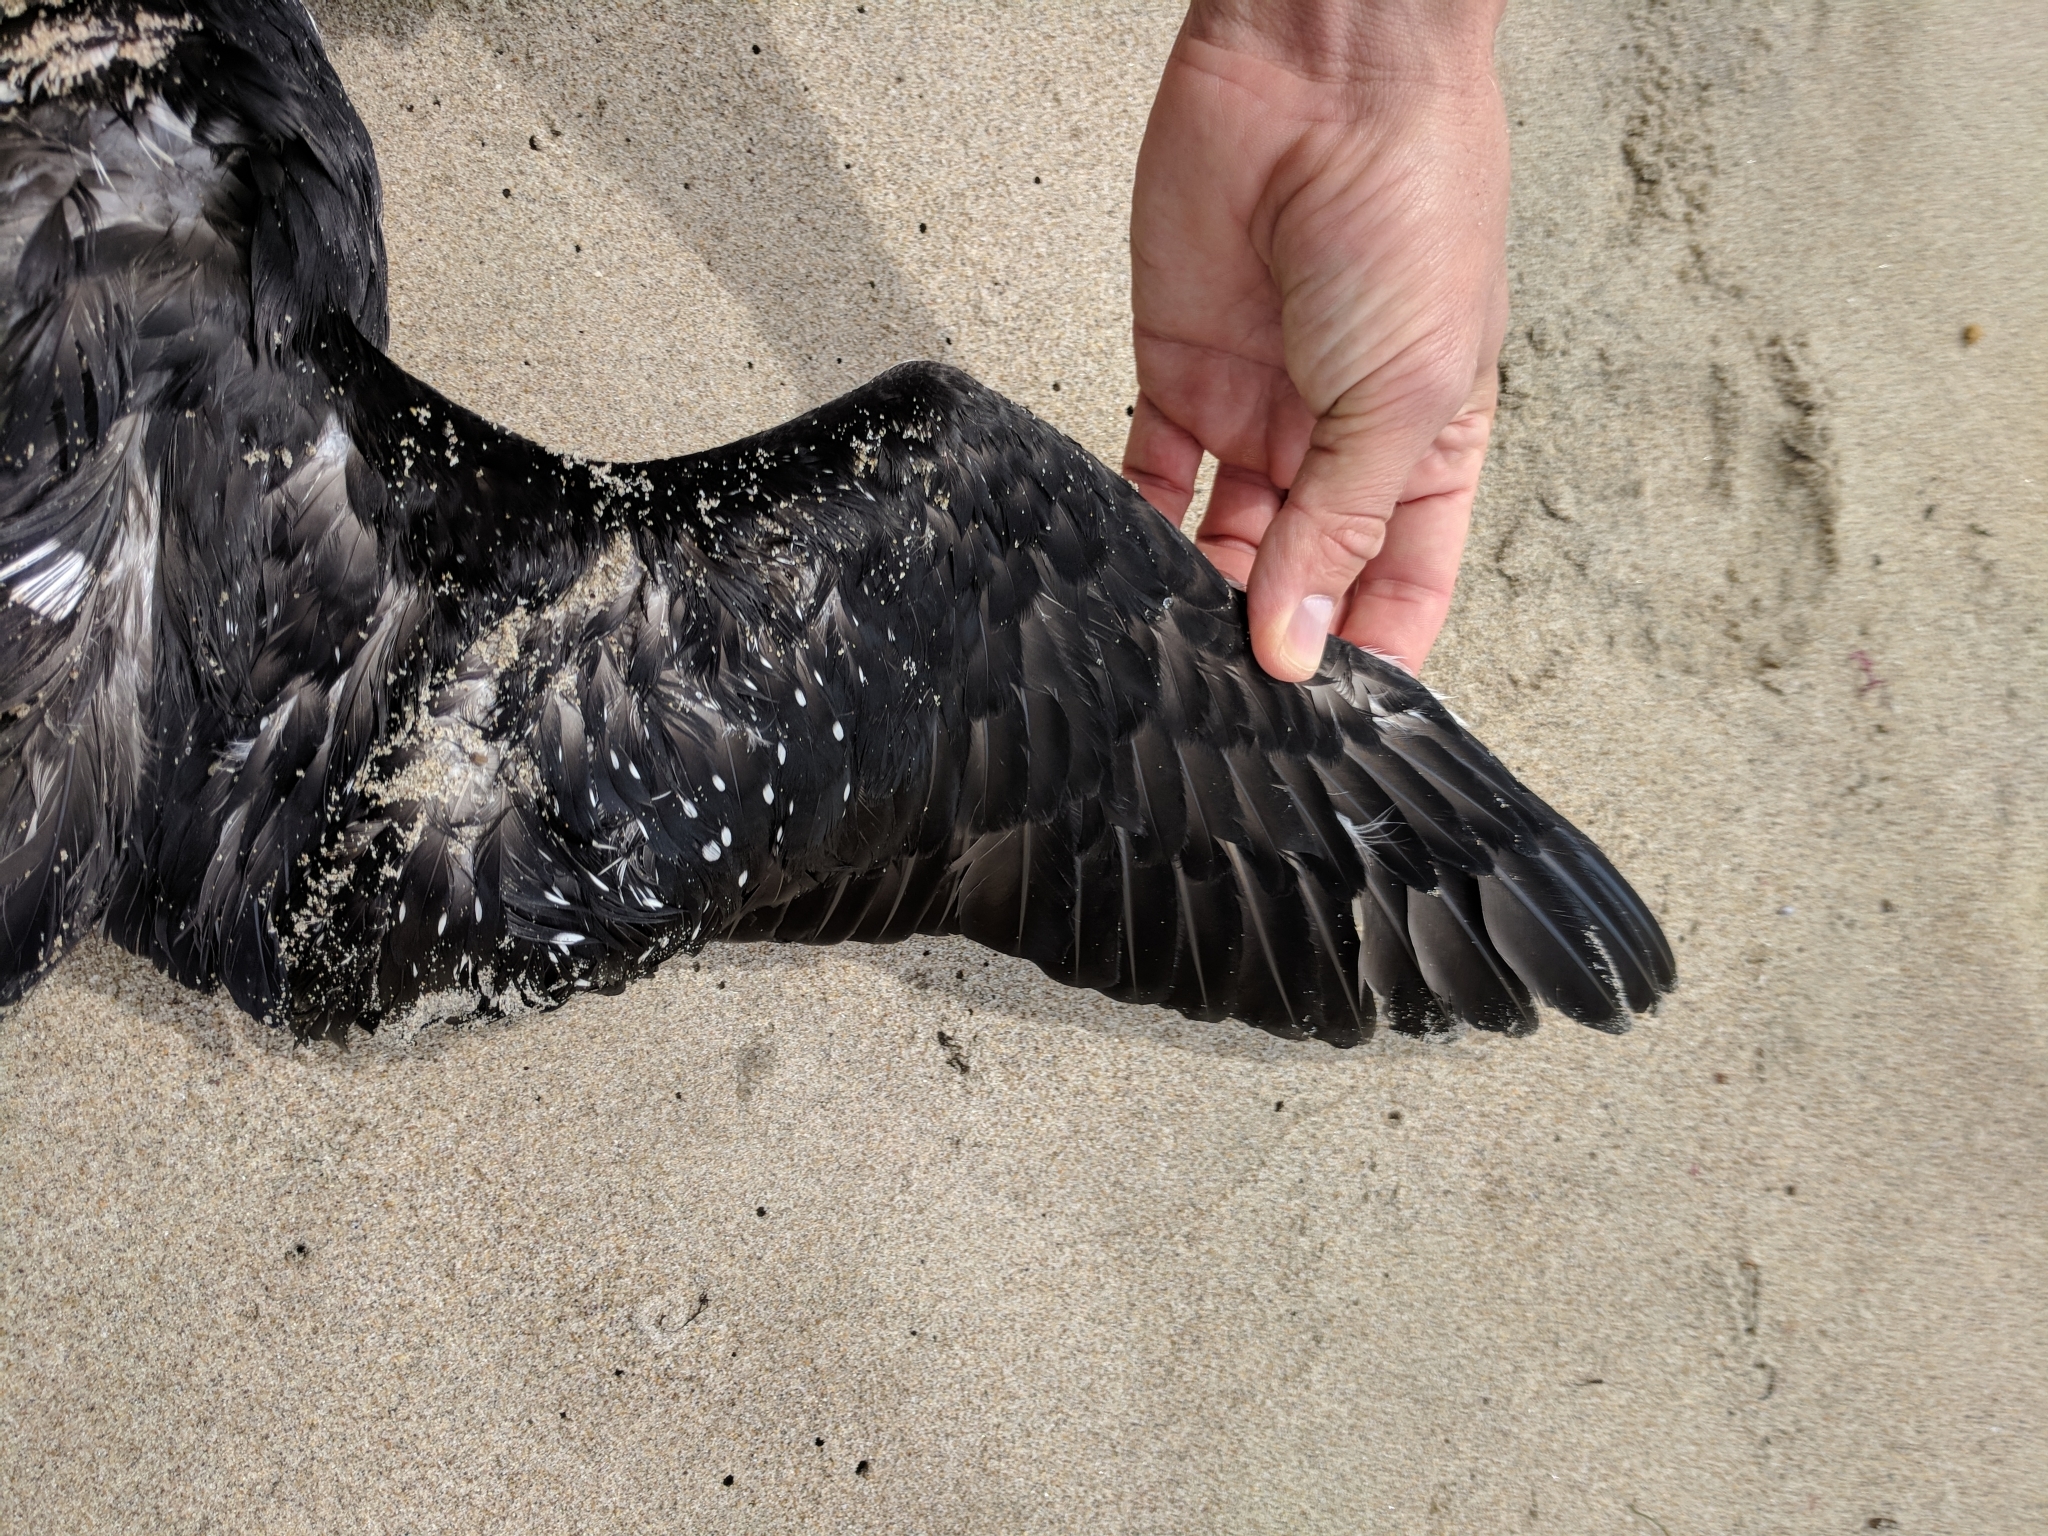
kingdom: Animalia
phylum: Chordata
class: Aves
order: Gaviiformes
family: Gaviidae
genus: Gavia
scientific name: Gavia pacifica
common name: Pacific loon
